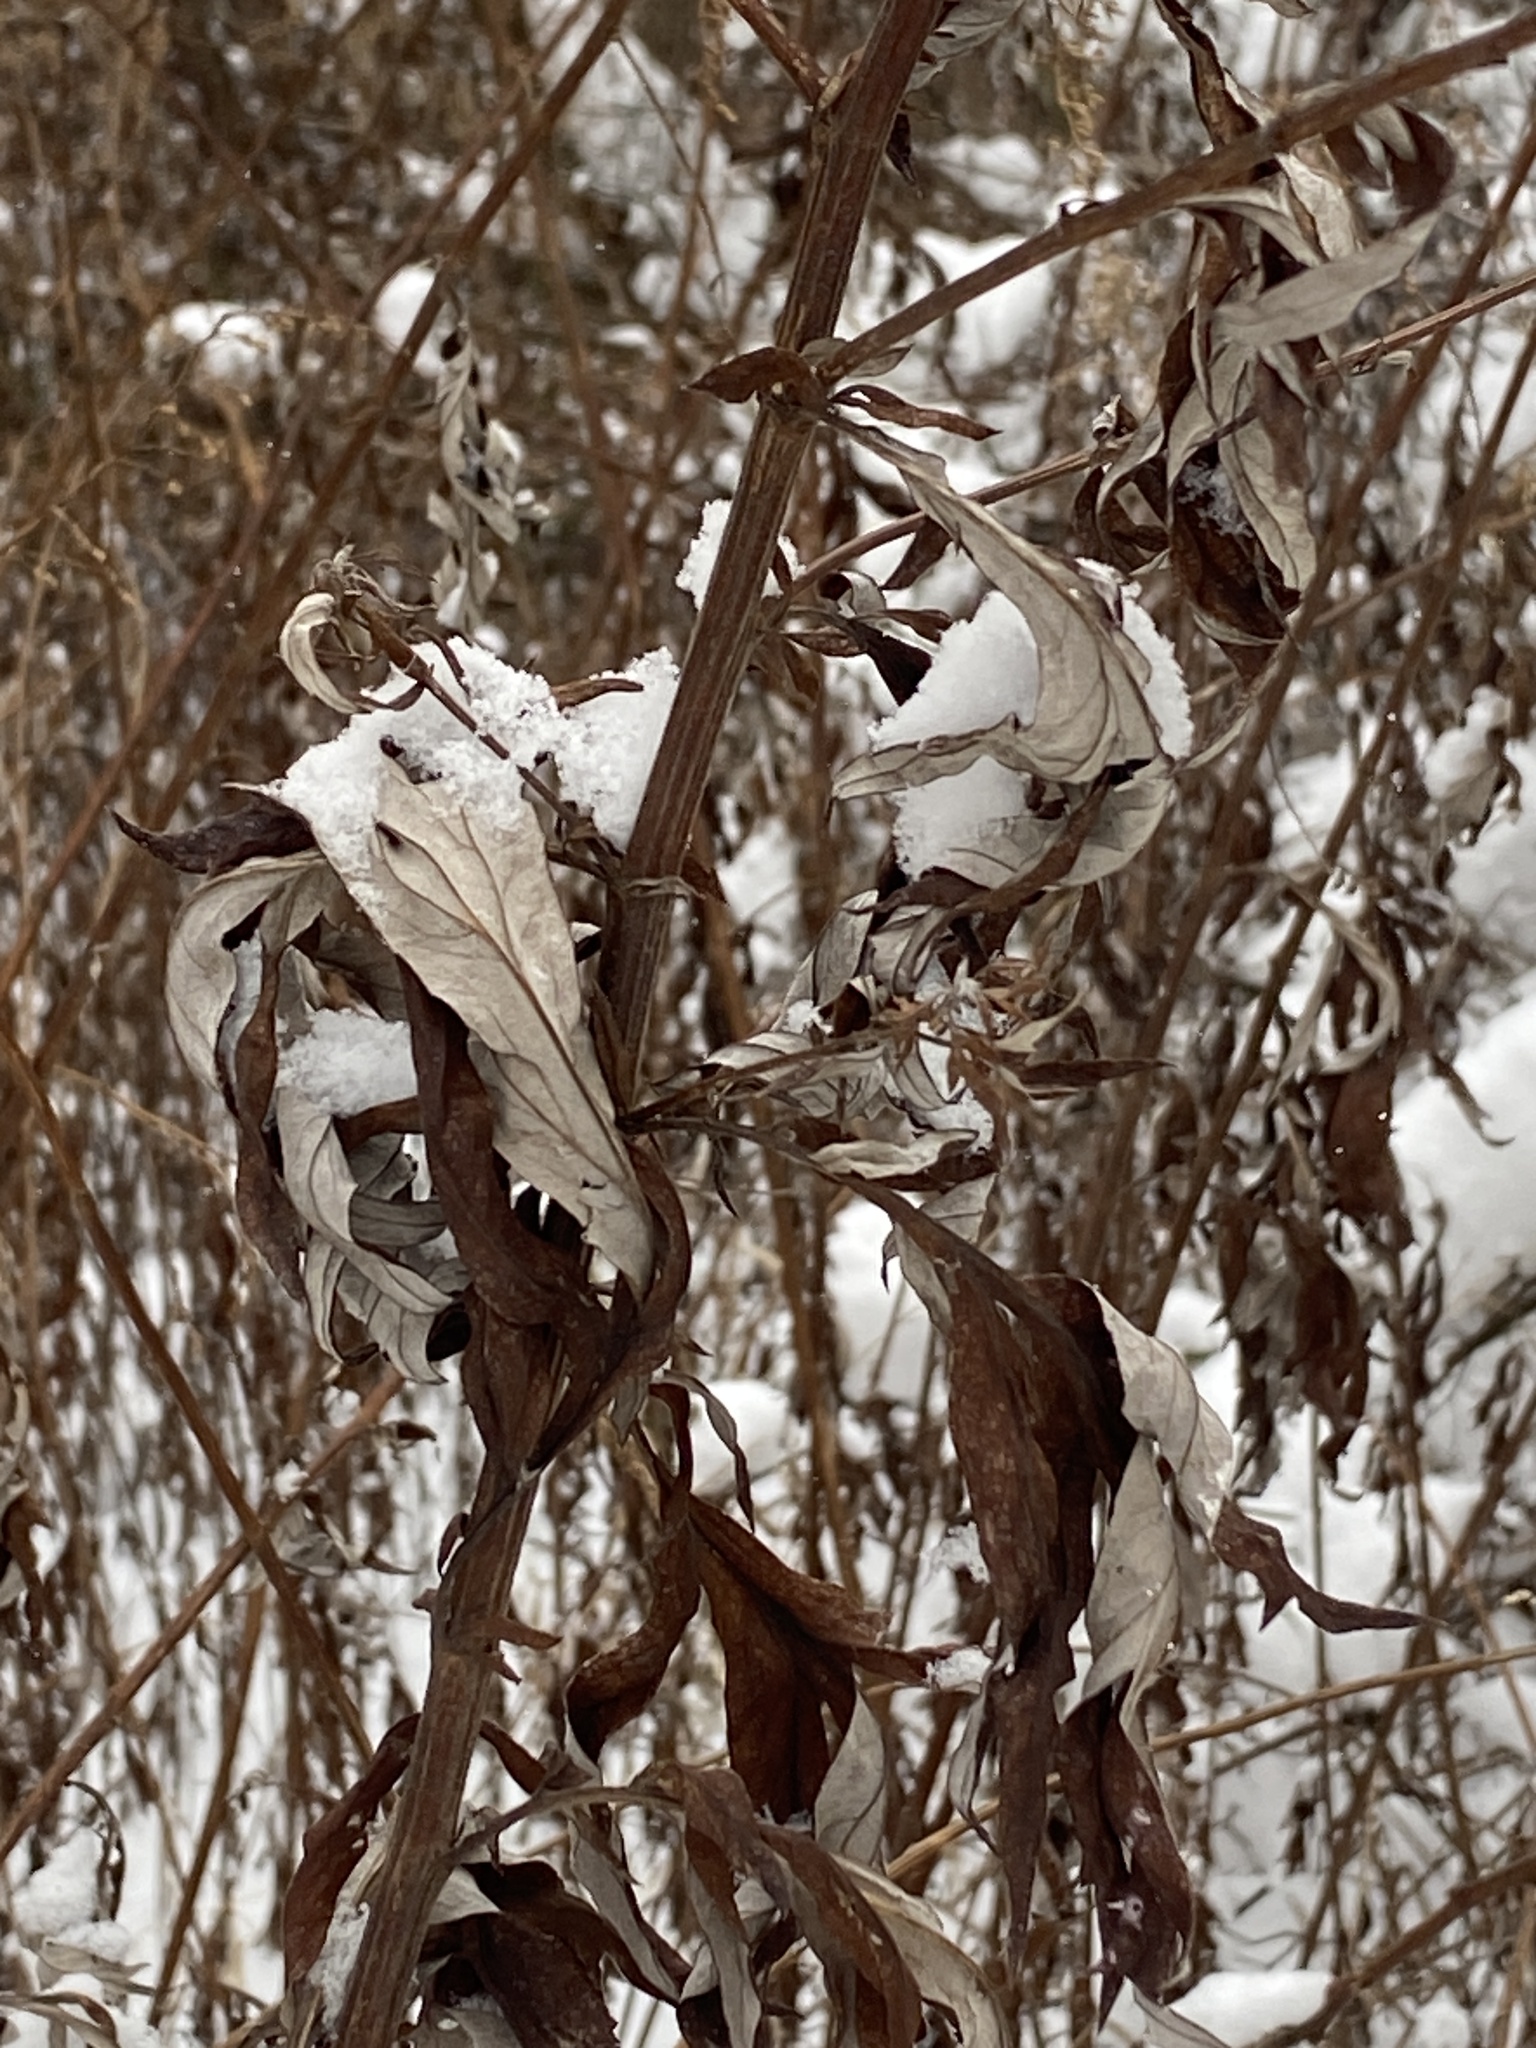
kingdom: Plantae
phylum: Tracheophyta
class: Magnoliopsida
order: Asterales
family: Asteraceae
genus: Artemisia
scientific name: Artemisia vulgaris
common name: Mugwort
